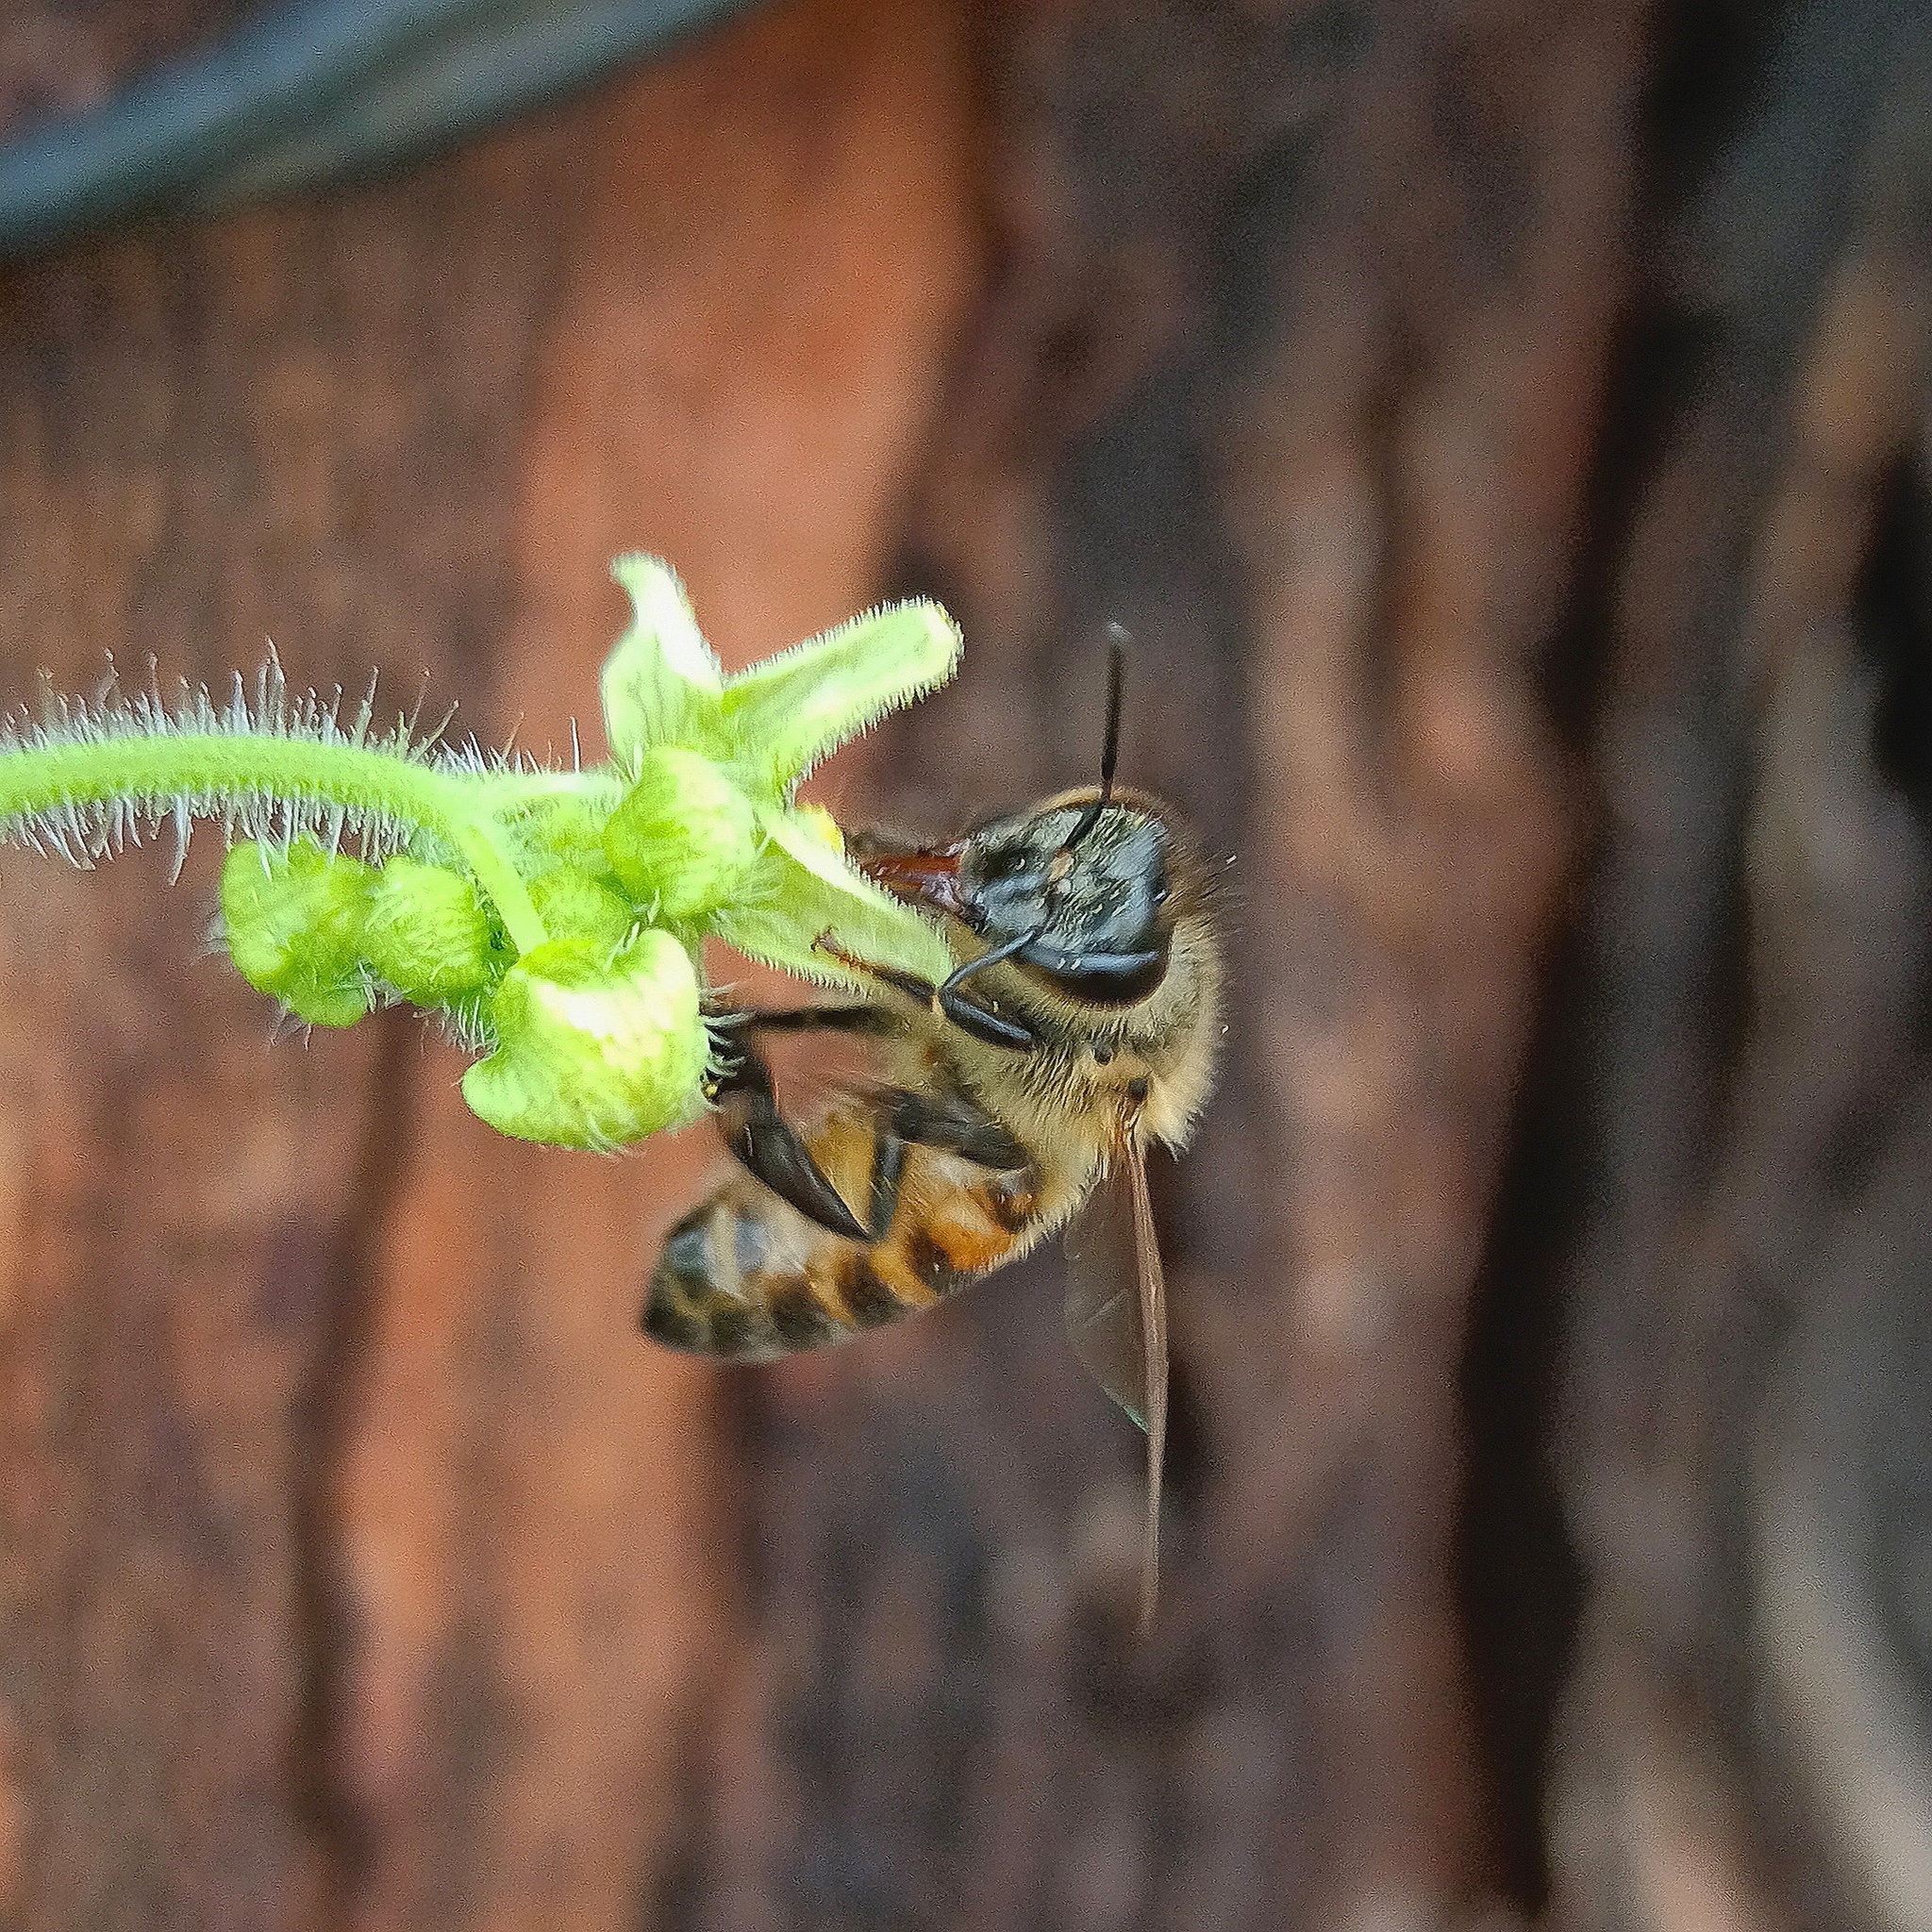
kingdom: Animalia
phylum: Arthropoda
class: Insecta
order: Hymenoptera
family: Apidae
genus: Apis
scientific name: Apis mellifera
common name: Honey bee
